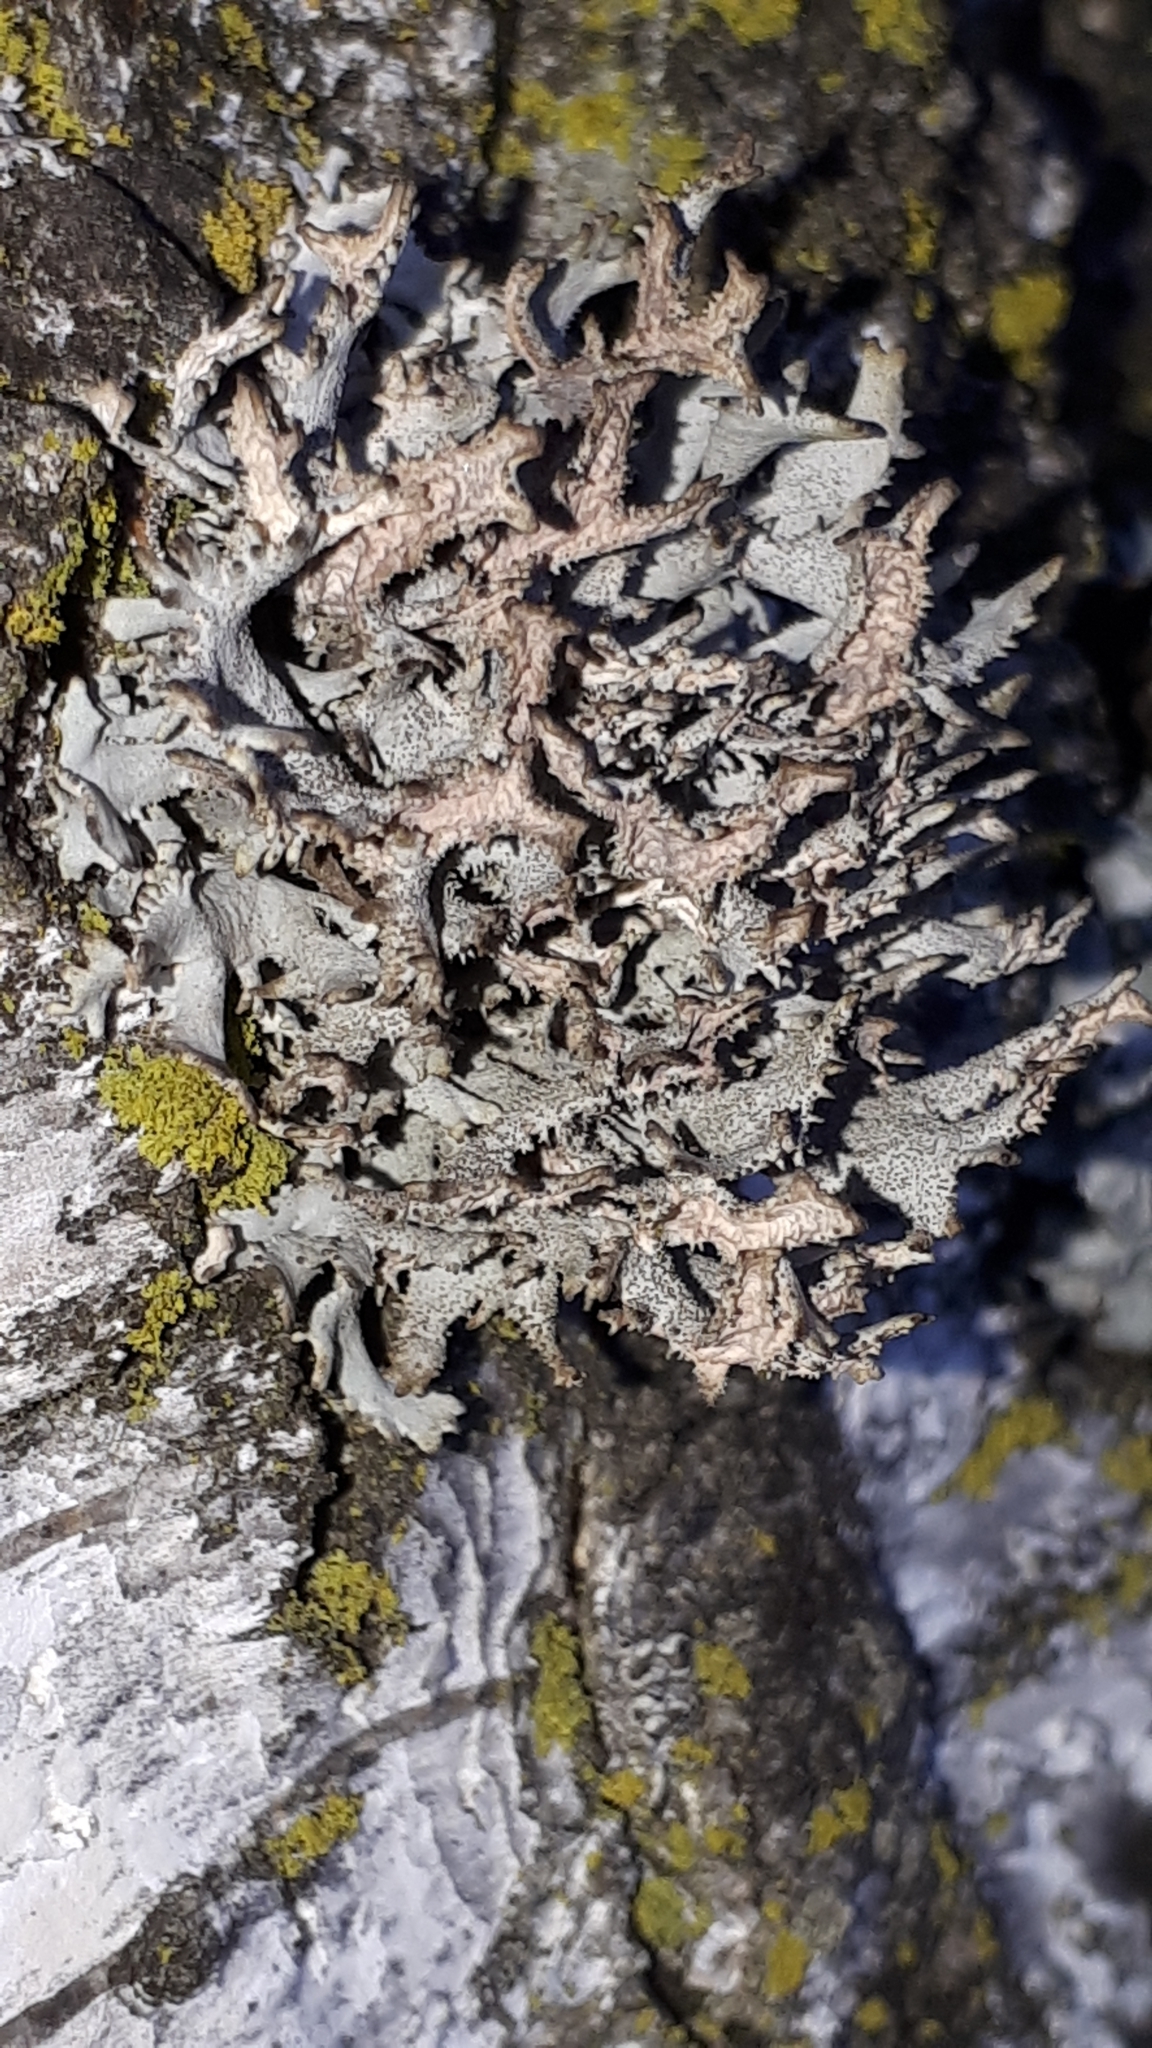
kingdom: Fungi
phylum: Ascomycota
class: Lecanoromycetes
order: Lecanorales
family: Parmeliaceae
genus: Pseudevernia
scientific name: Pseudevernia furfuracea
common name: Tree moss
